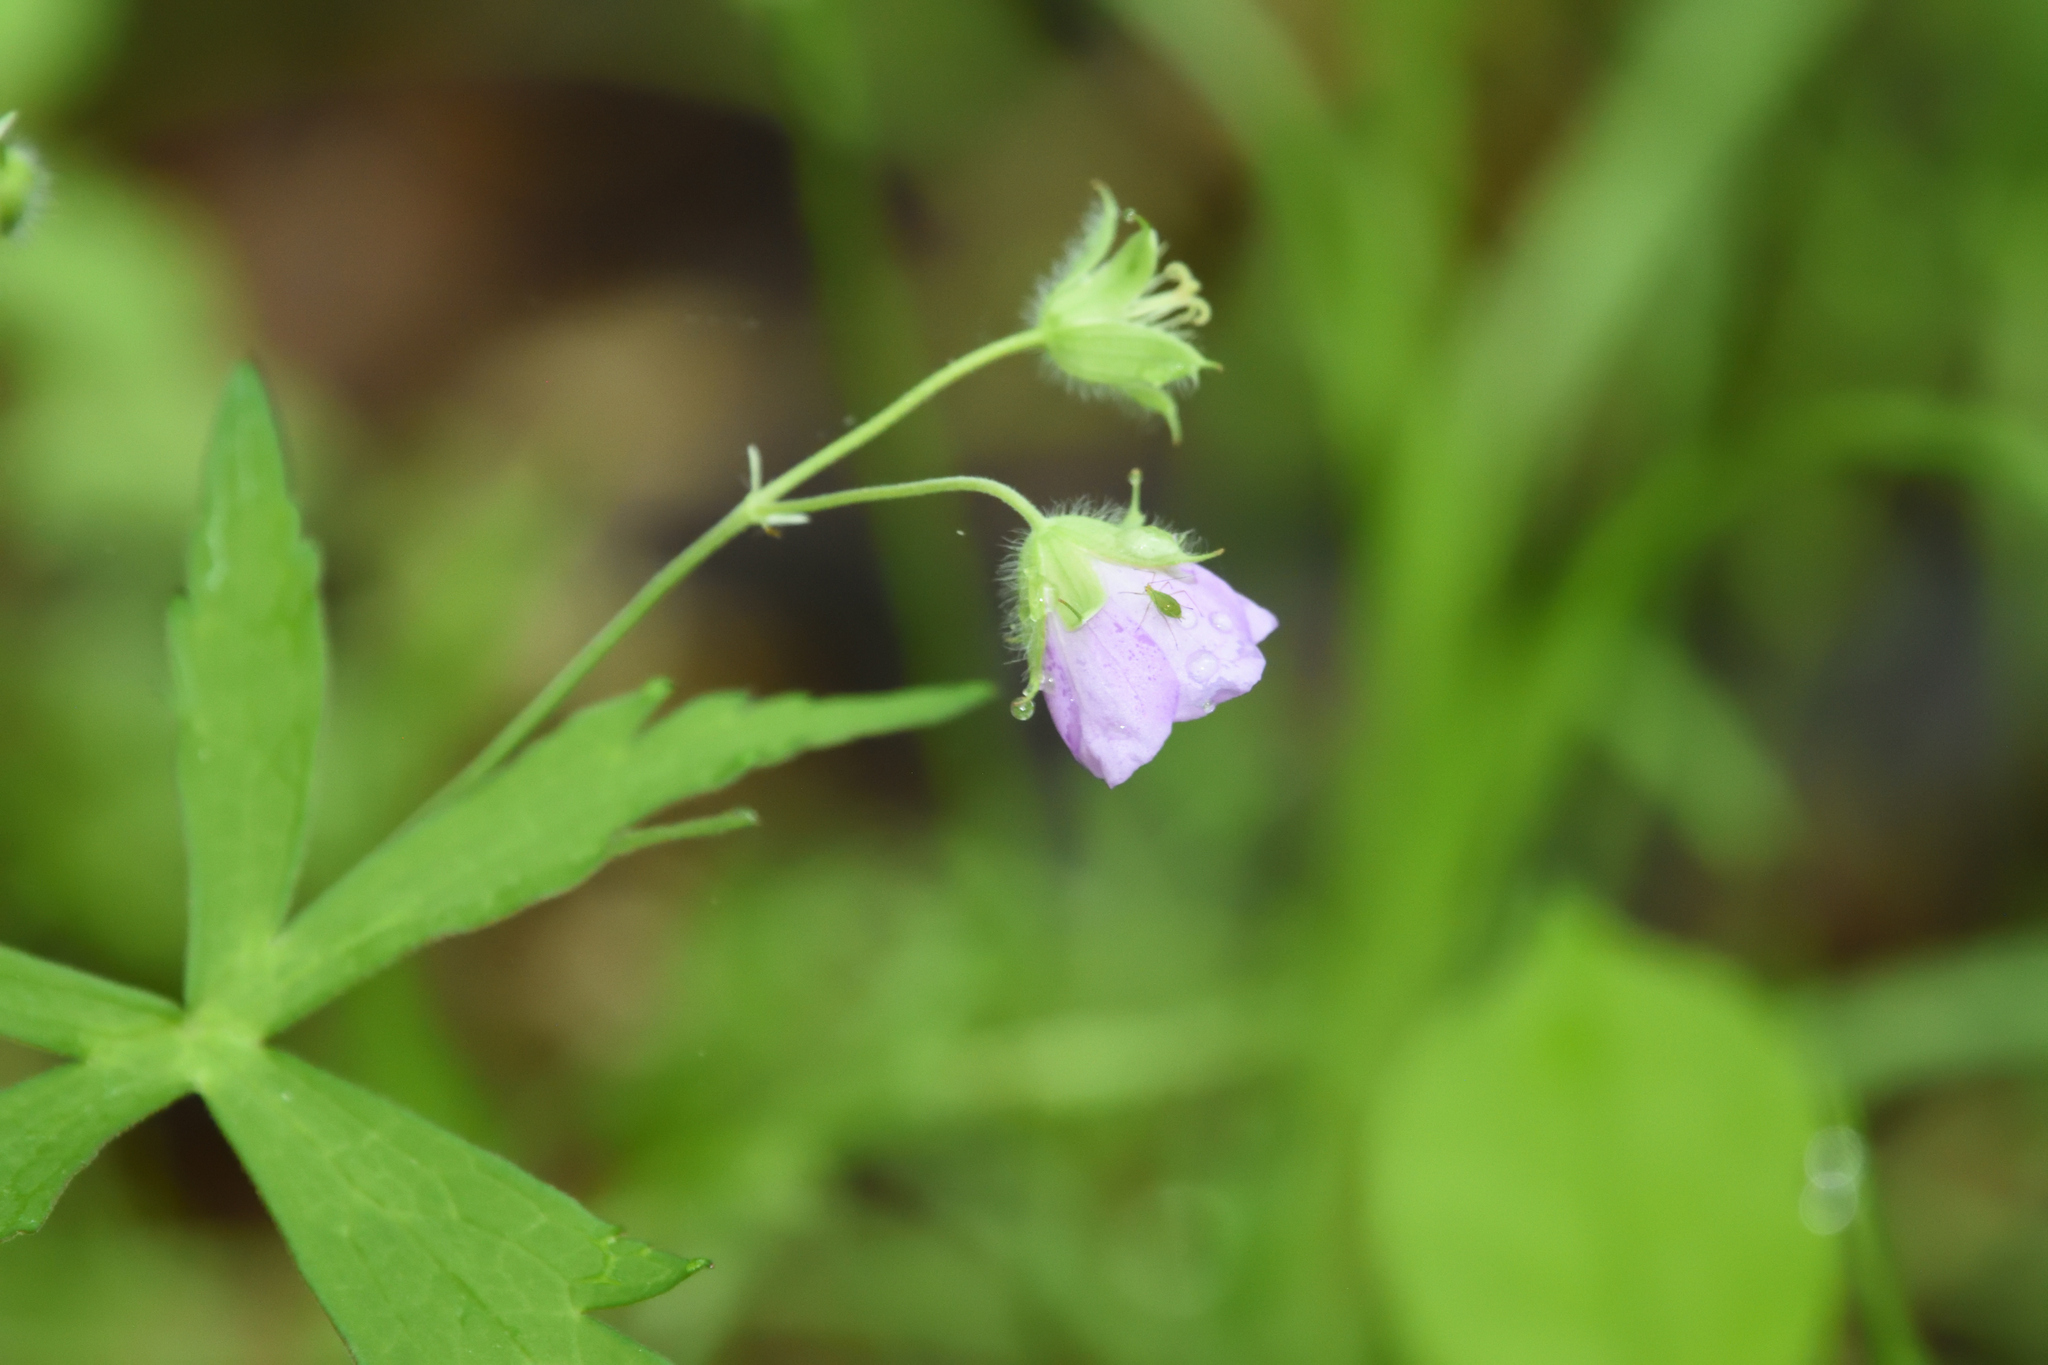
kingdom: Plantae
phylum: Tracheophyta
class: Magnoliopsida
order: Geraniales
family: Geraniaceae
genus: Geranium
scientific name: Geranium maculatum
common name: Spotted geranium
